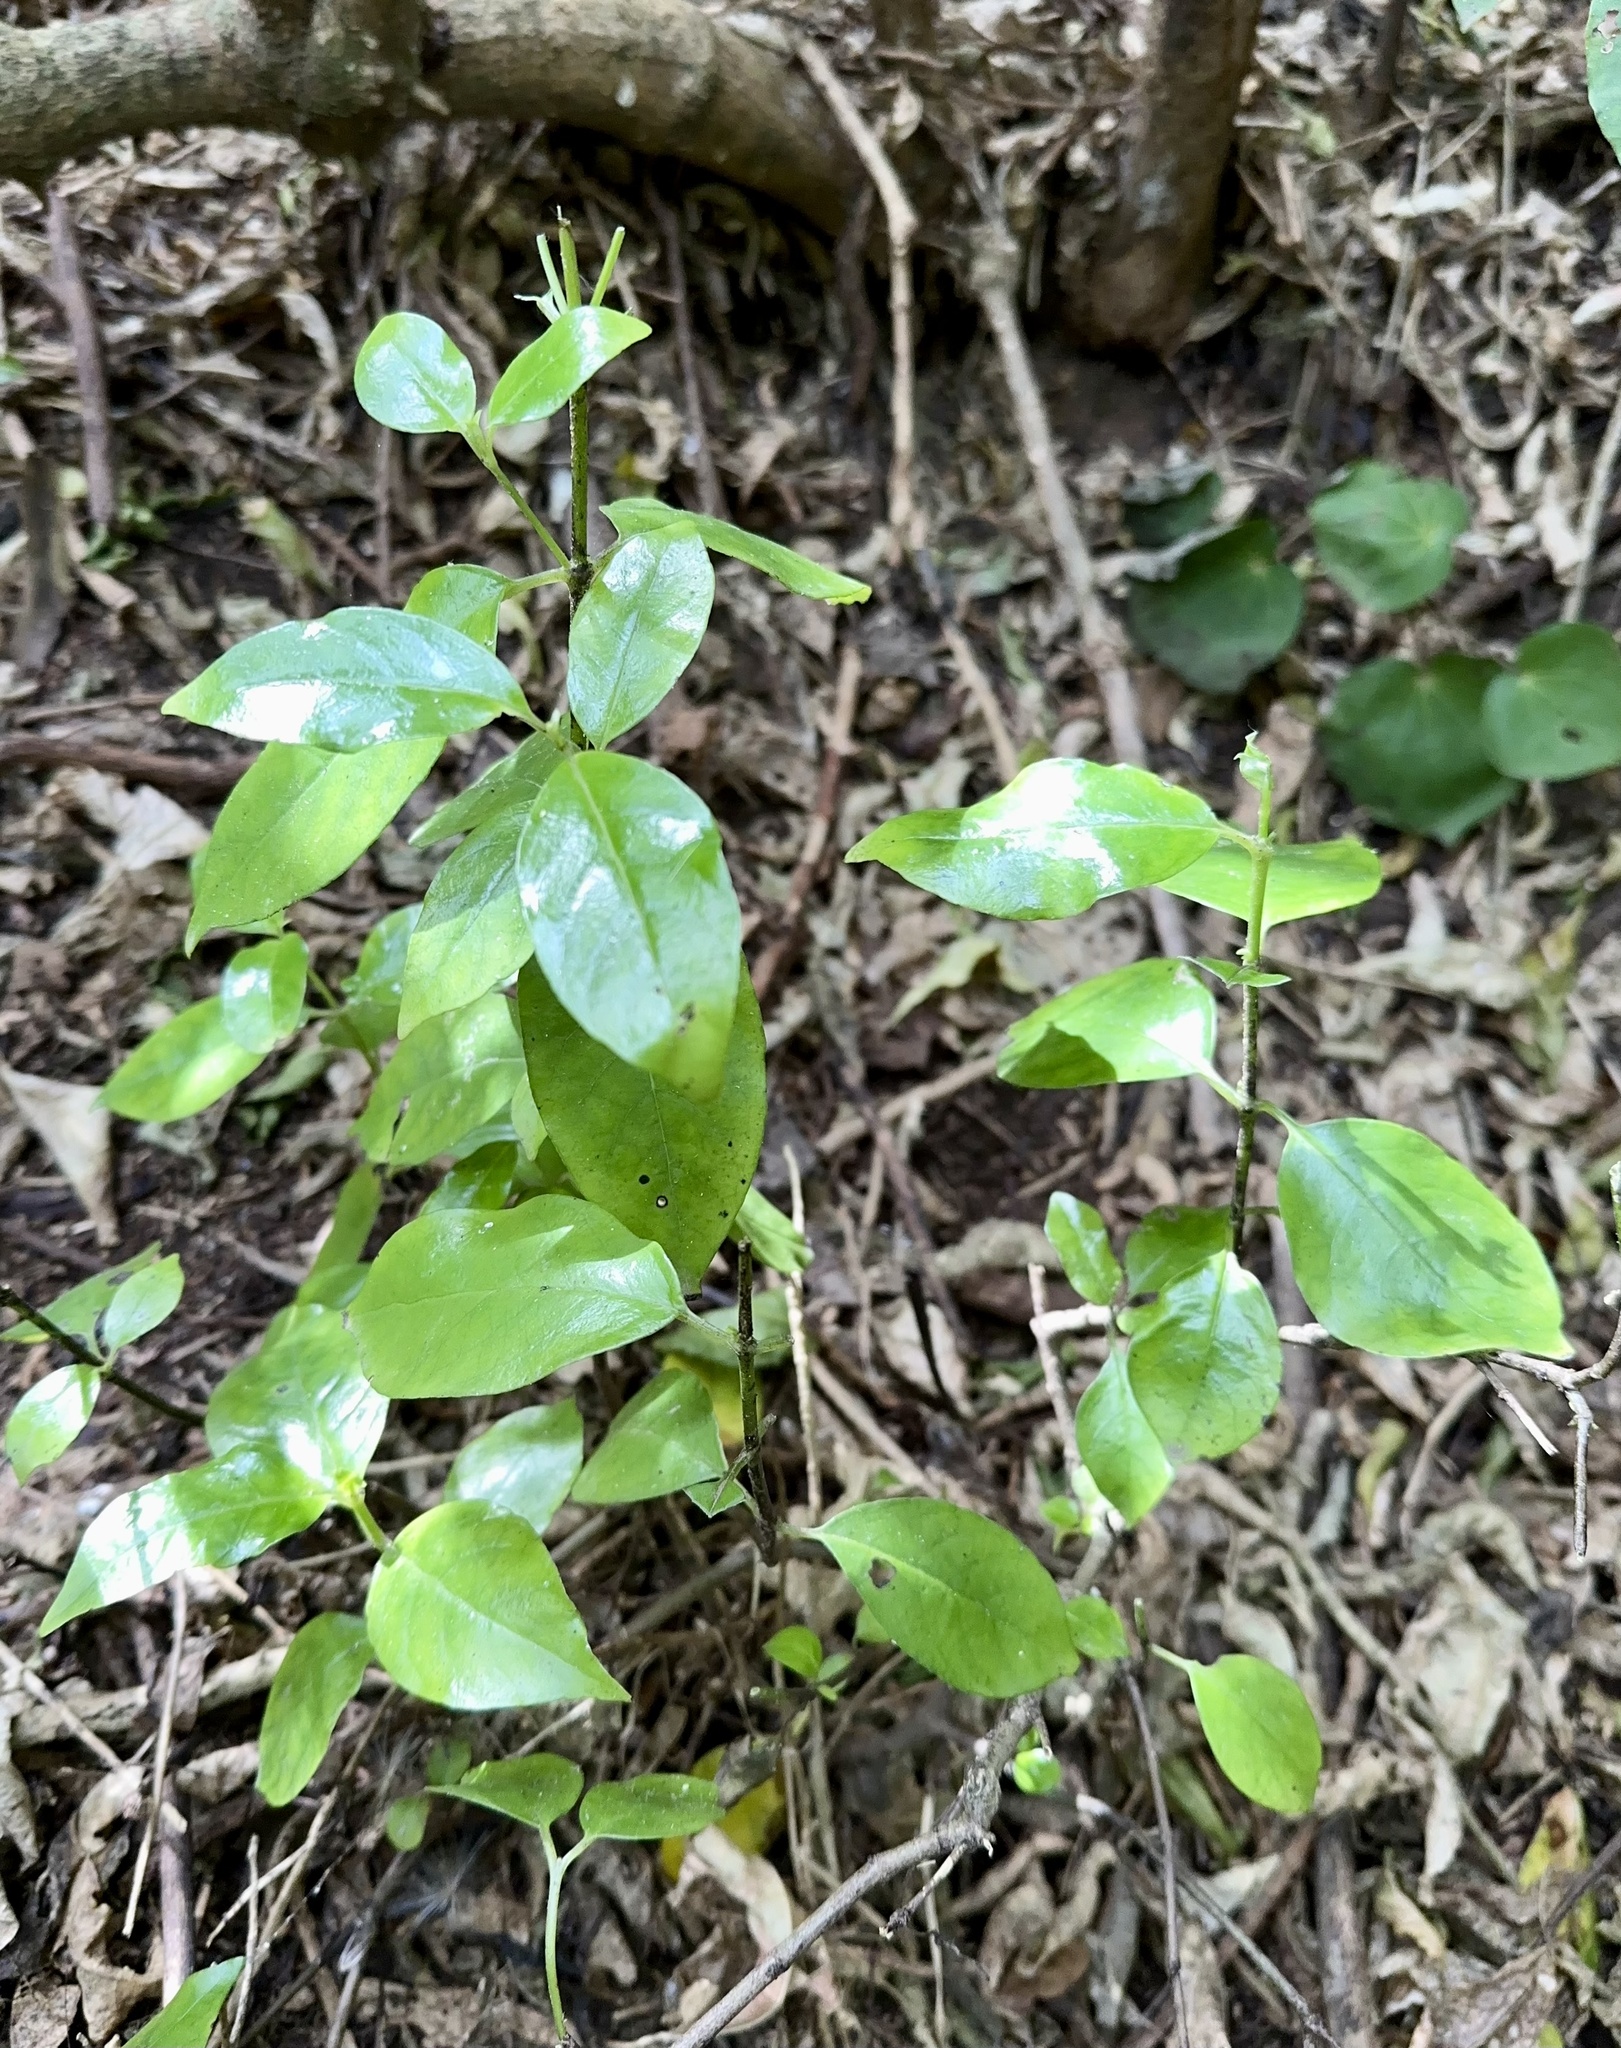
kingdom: Plantae
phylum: Tracheophyta
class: Magnoliopsida
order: Gentianales
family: Loganiaceae
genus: Geniostoma
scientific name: Geniostoma ligustrifolium
